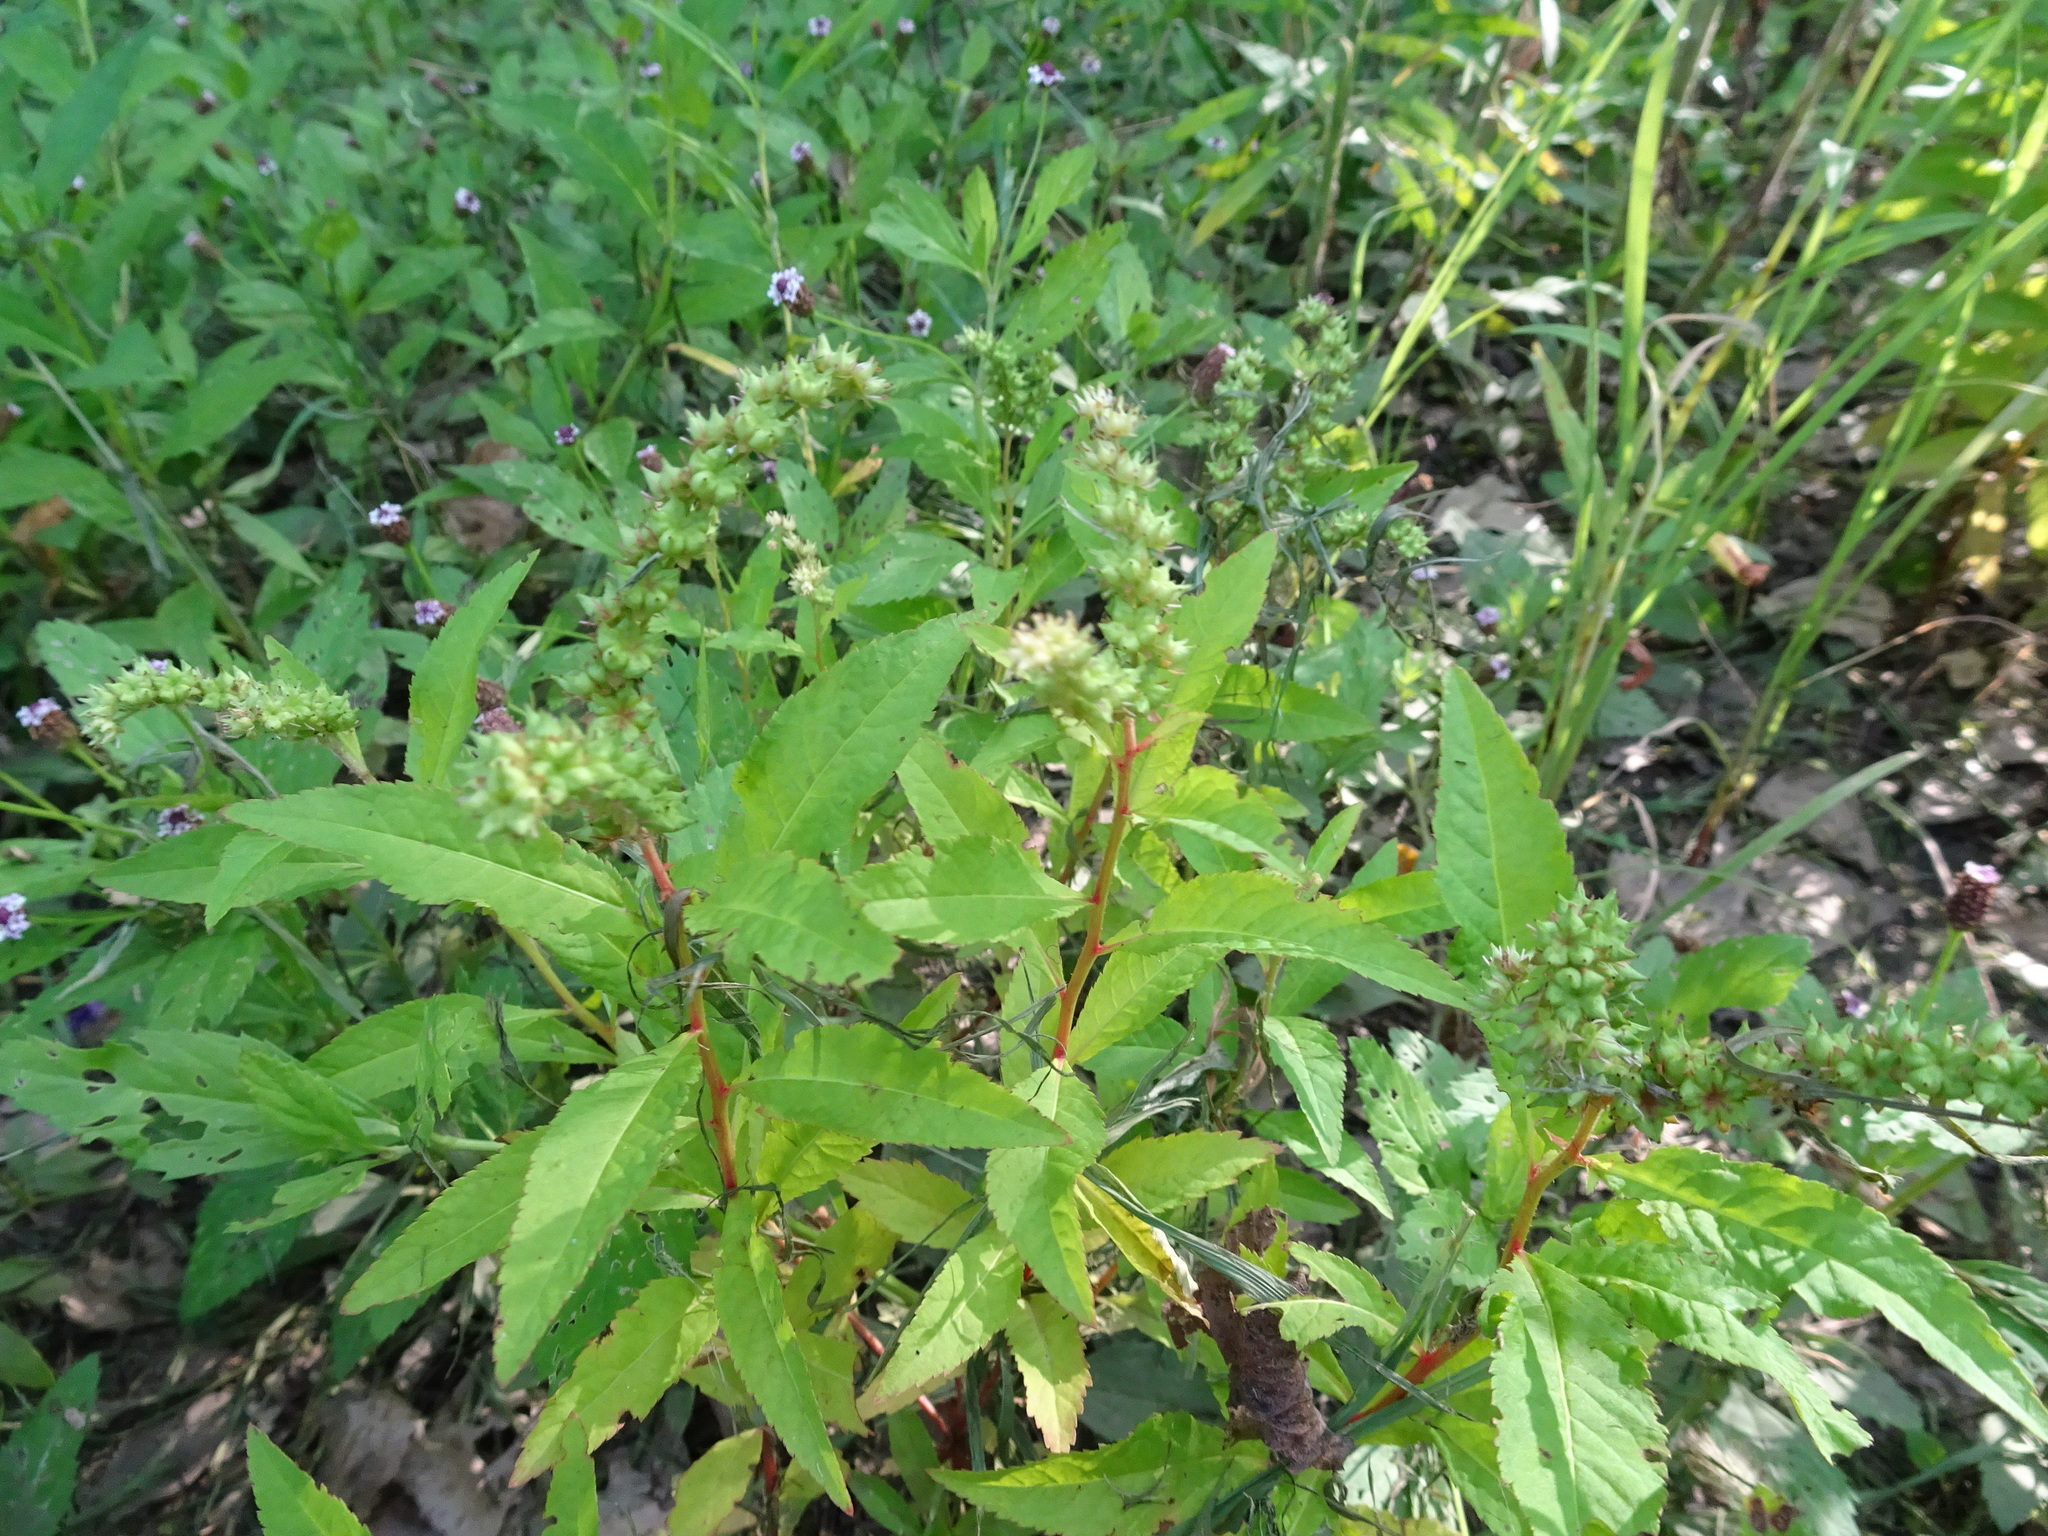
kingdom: Plantae
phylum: Tracheophyta
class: Magnoliopsida
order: Saxifragales
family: Penthoraceae
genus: Penthorum
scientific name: Penthorum sedoides
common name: Ditch stonecrop
